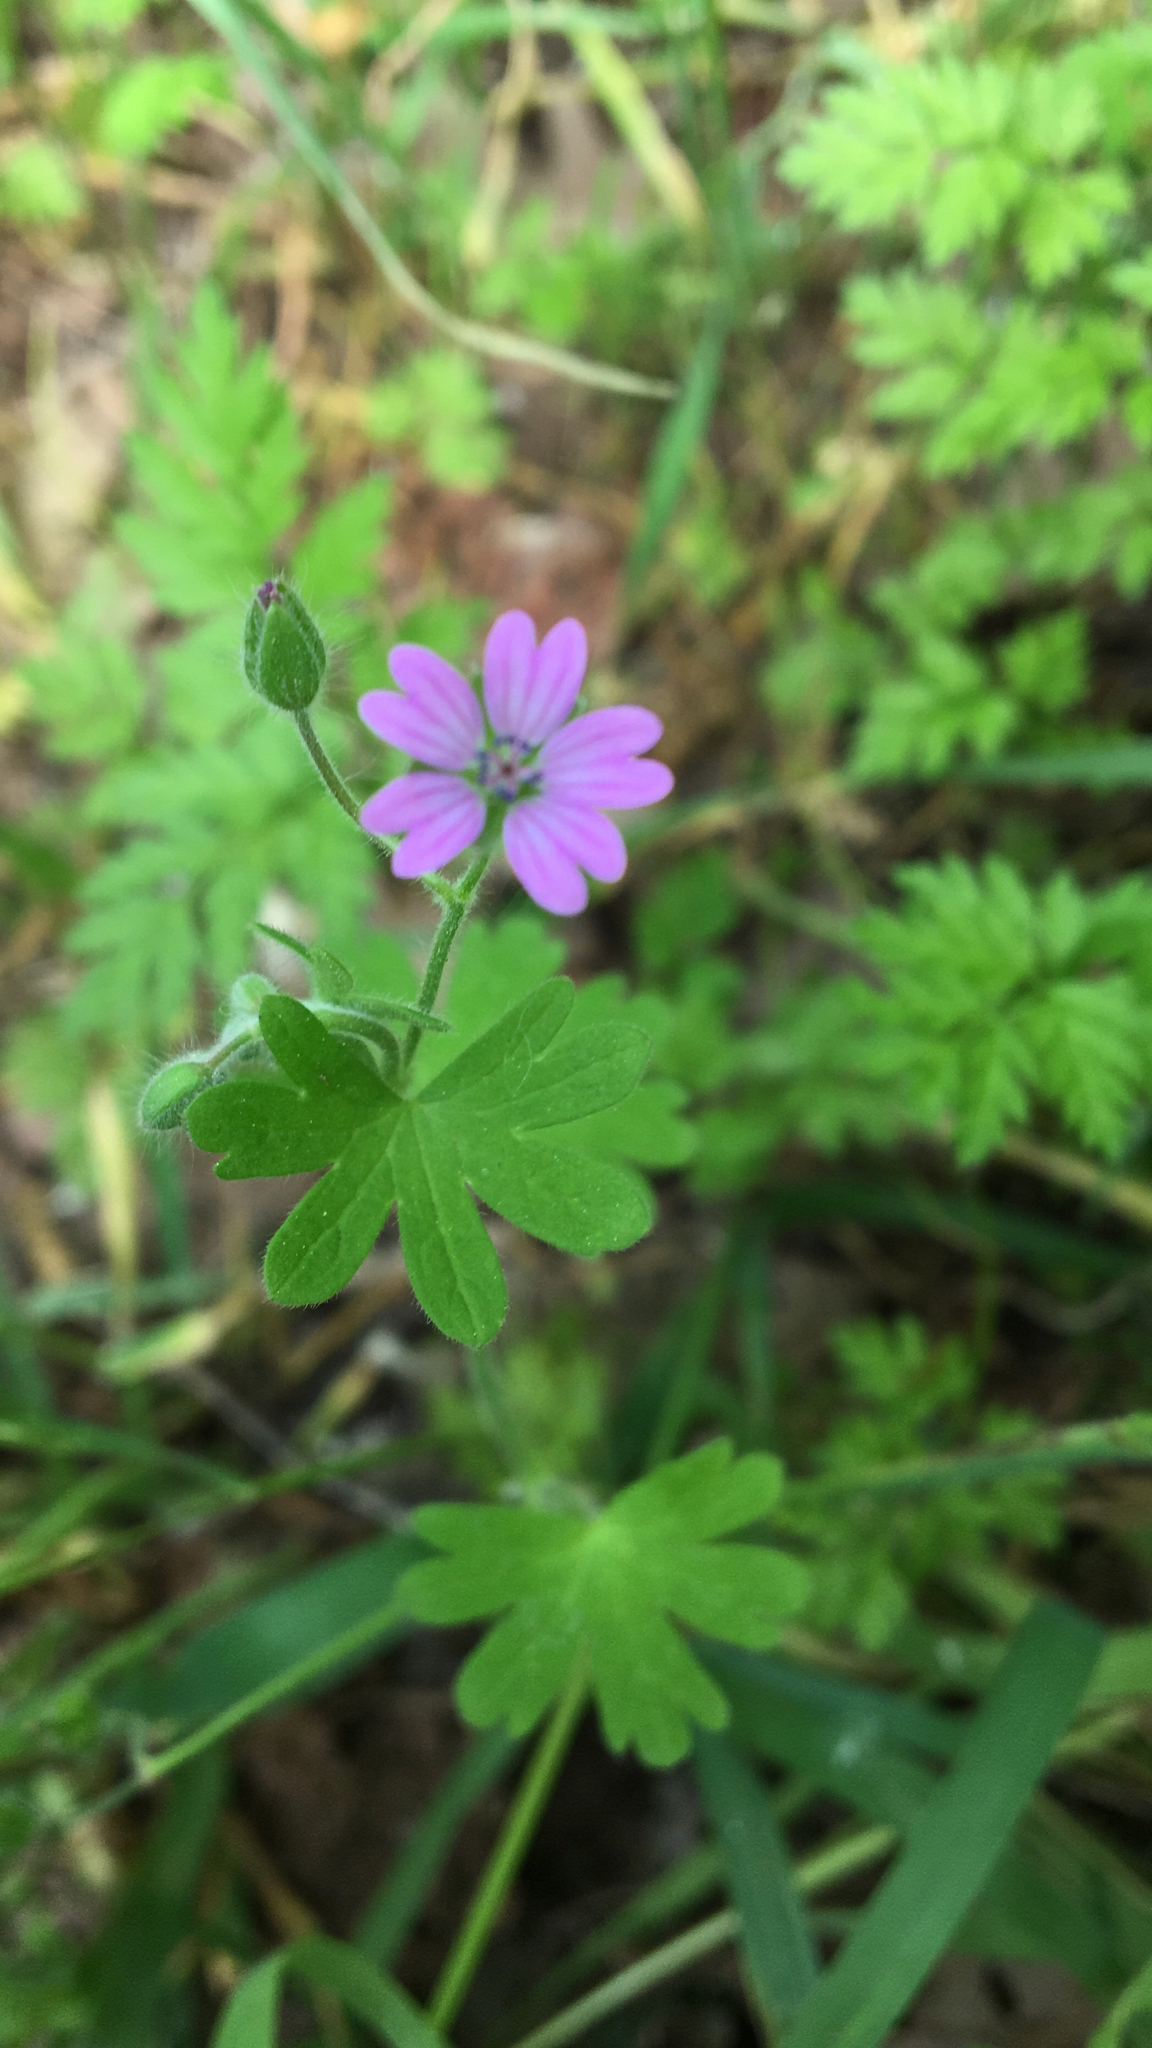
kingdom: Plantae
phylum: Tracheophyta
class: Magnoliopsida
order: Geraniales
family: Geraniaceae
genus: Geranium
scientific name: Geranium molle
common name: Dove's-foot crane's-bill
